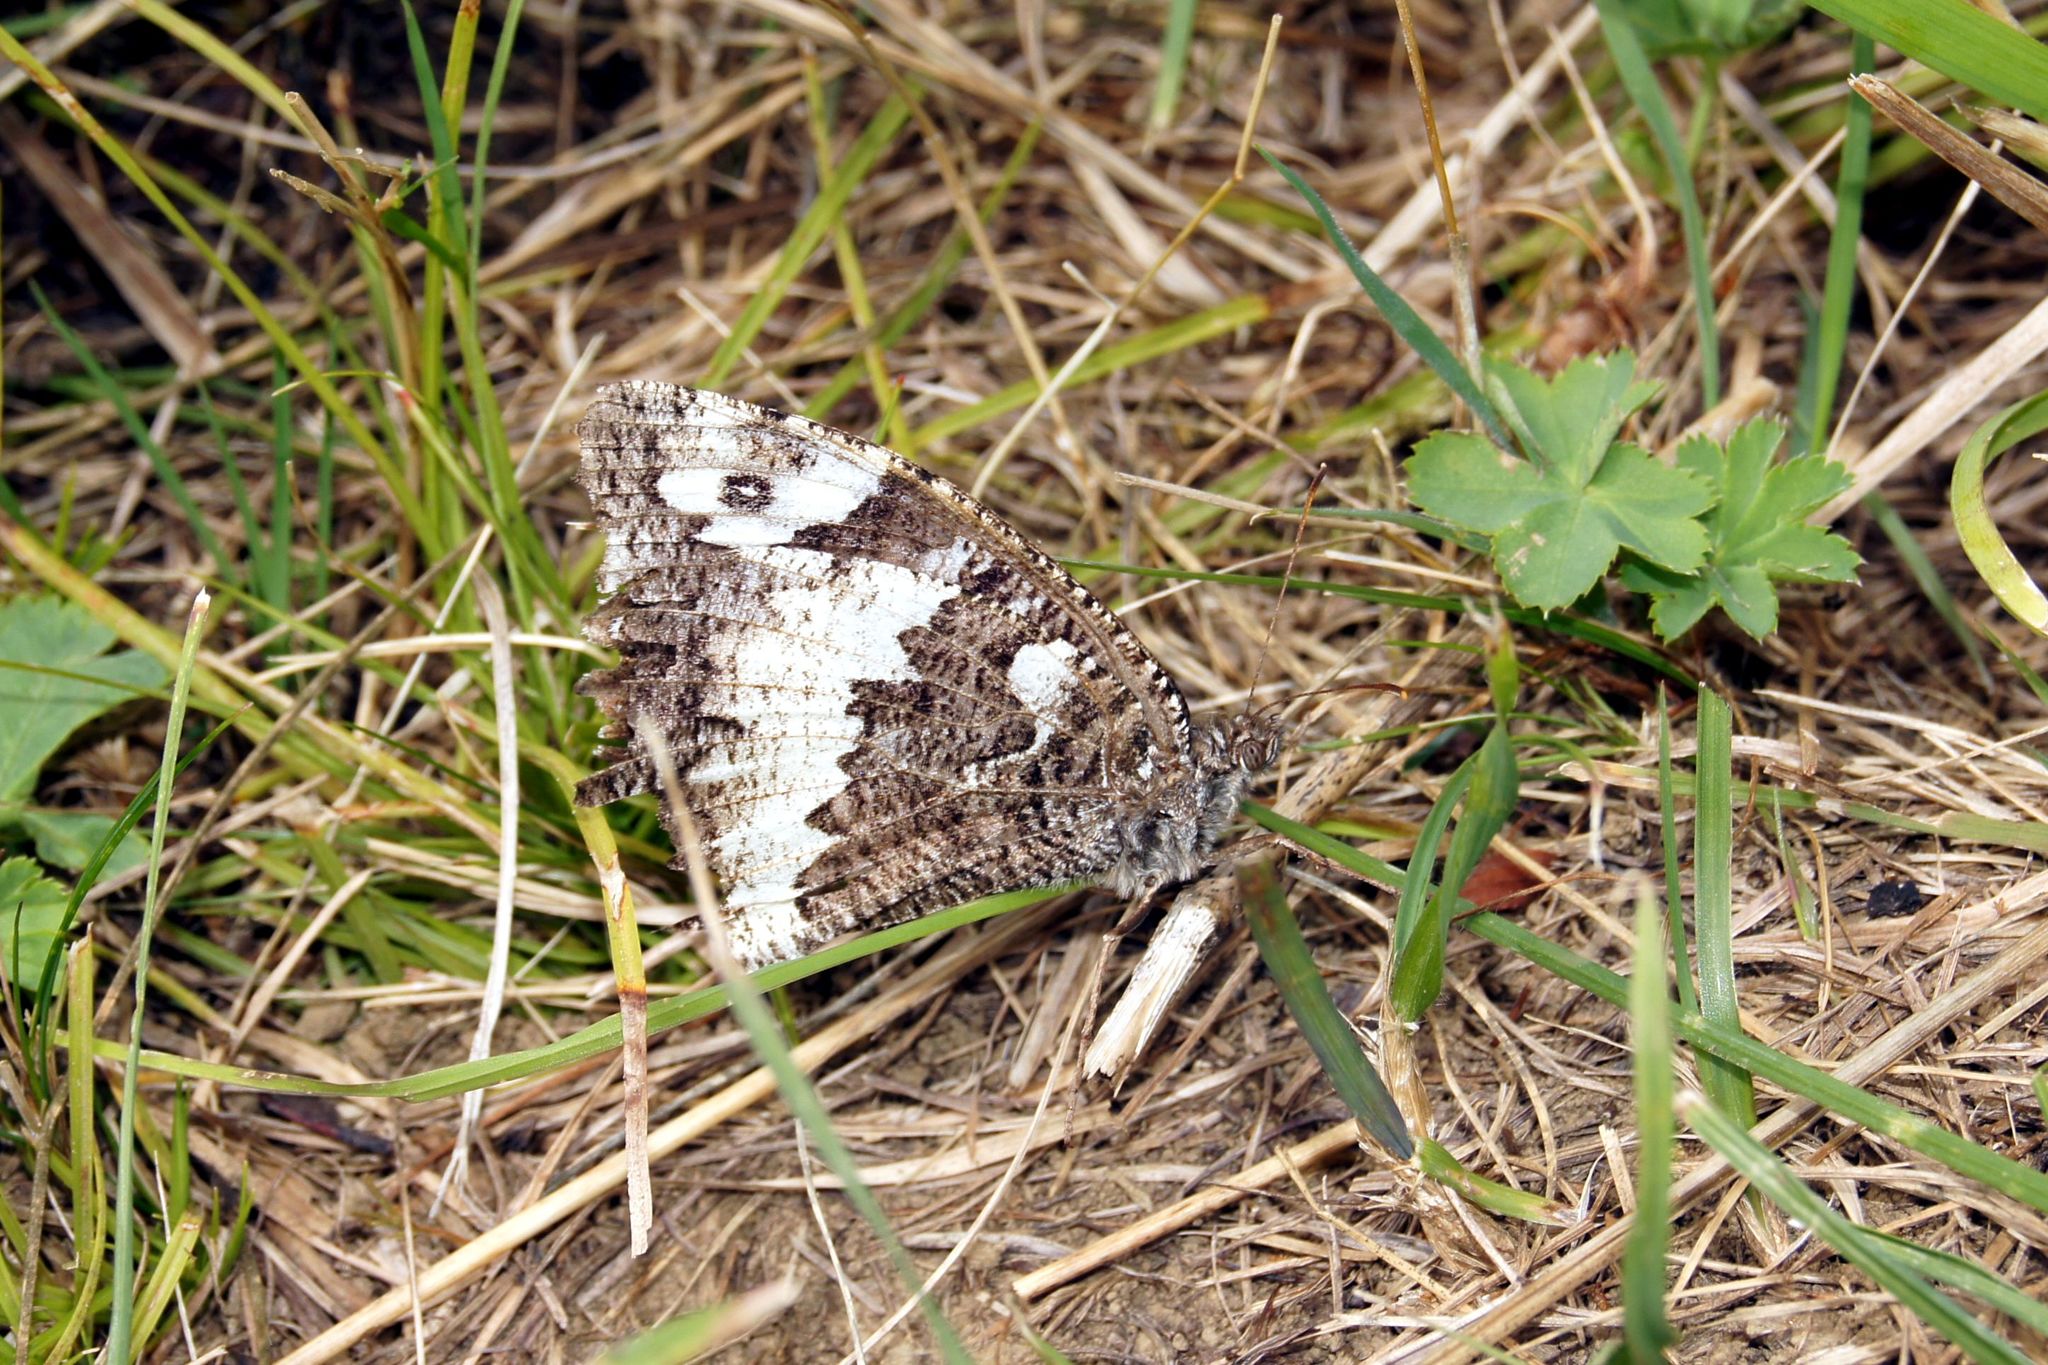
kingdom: Animalia
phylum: Arthropoda
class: Insecta
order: Lepidoptera
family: Lycaenidae
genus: Loweia
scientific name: Loweia tityrus
